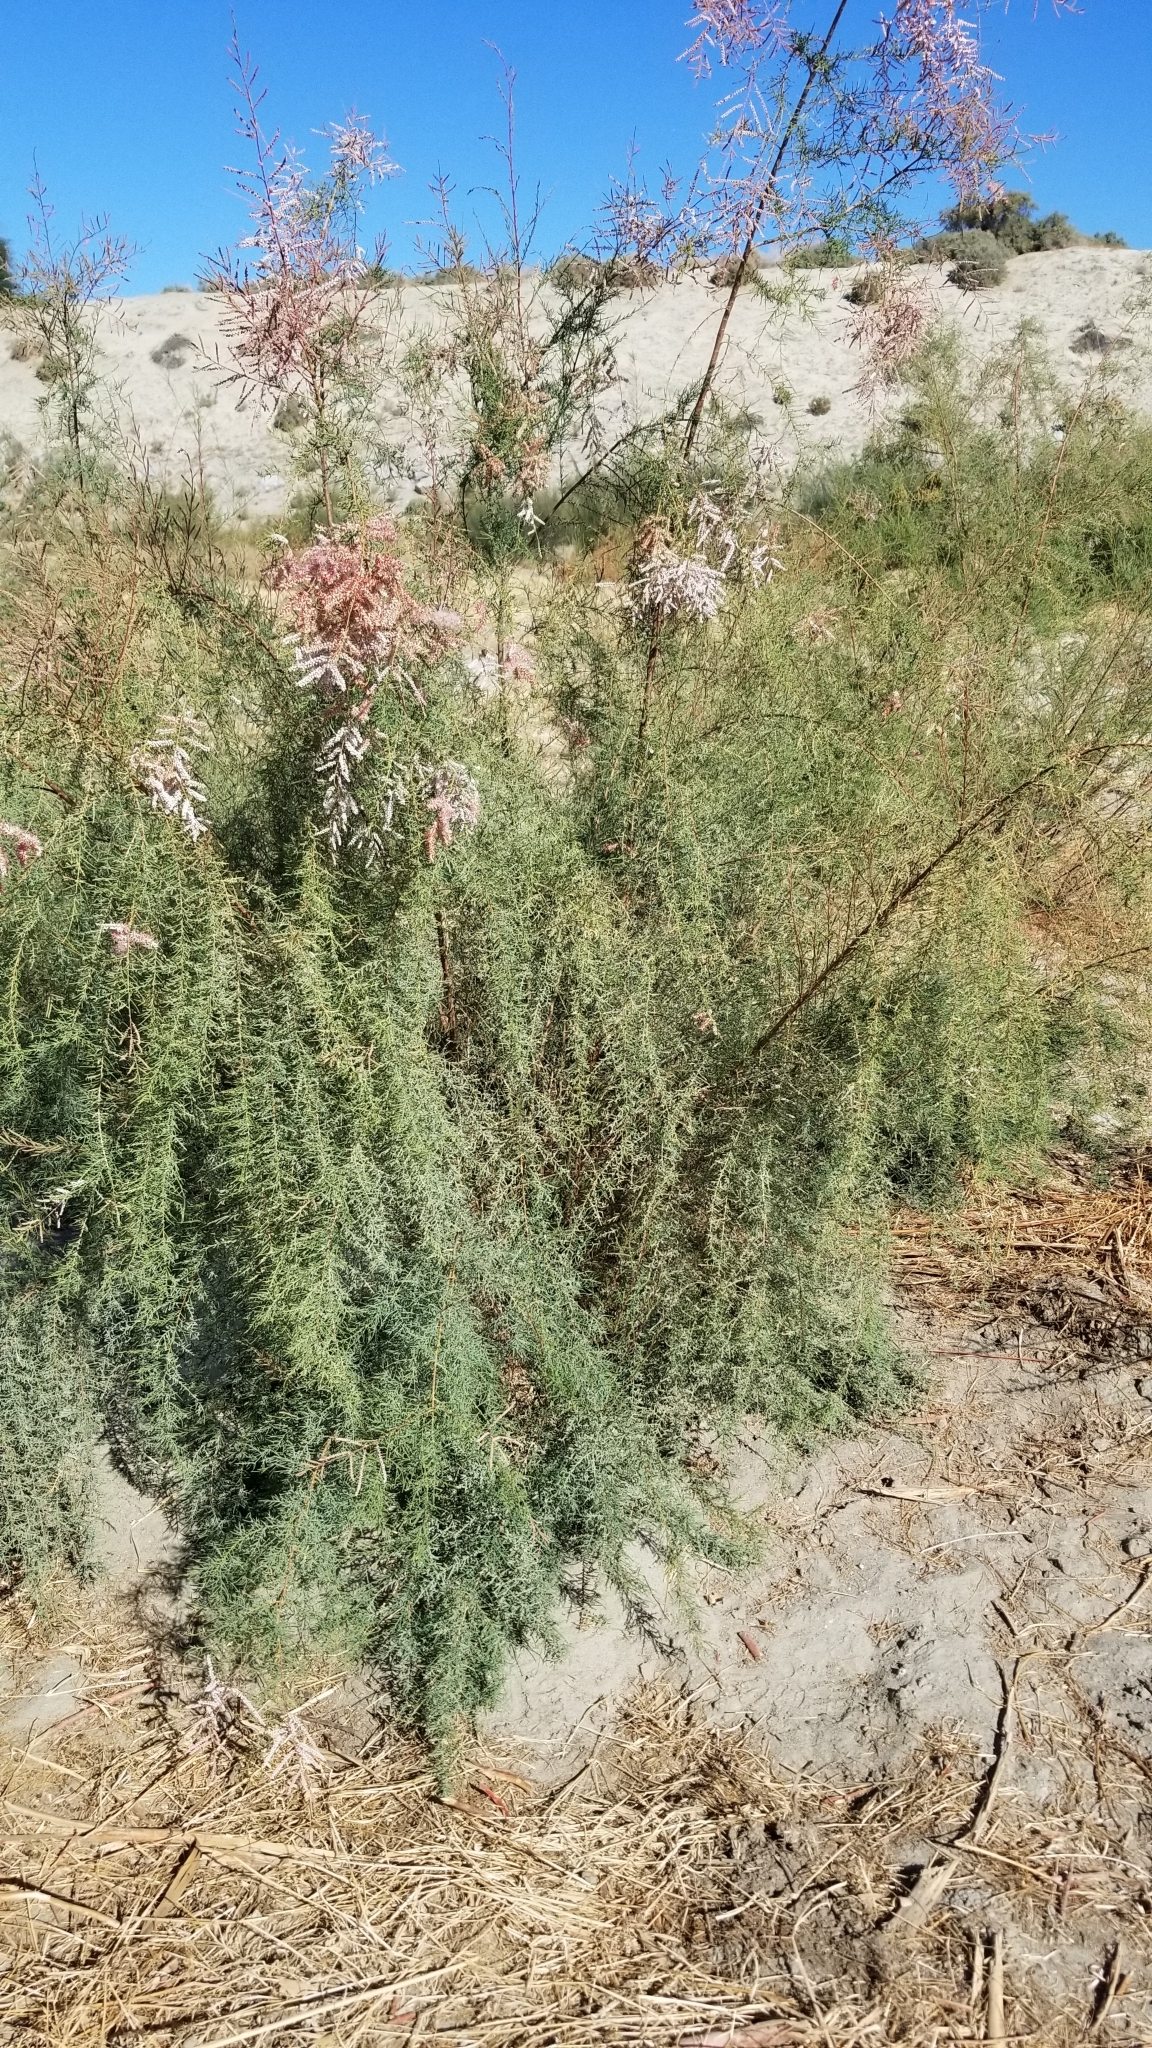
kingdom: Plantae
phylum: Tracheophyta
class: Magnoliopsida
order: Caryophyllales
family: Tamaricaceae
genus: Tamarix
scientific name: Tamarix ramosissima
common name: Pink tamarisk
